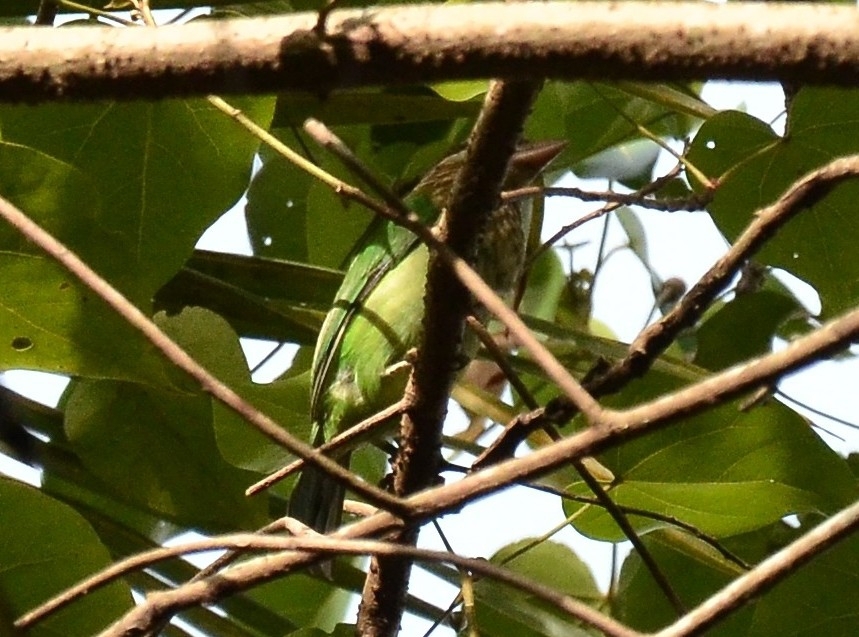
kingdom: Animalia
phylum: Chordata
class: Aves
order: Piciformes
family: Megalaimidae
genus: Psilopogon
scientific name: Psilopogon viridis
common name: White-cheeked barbet
